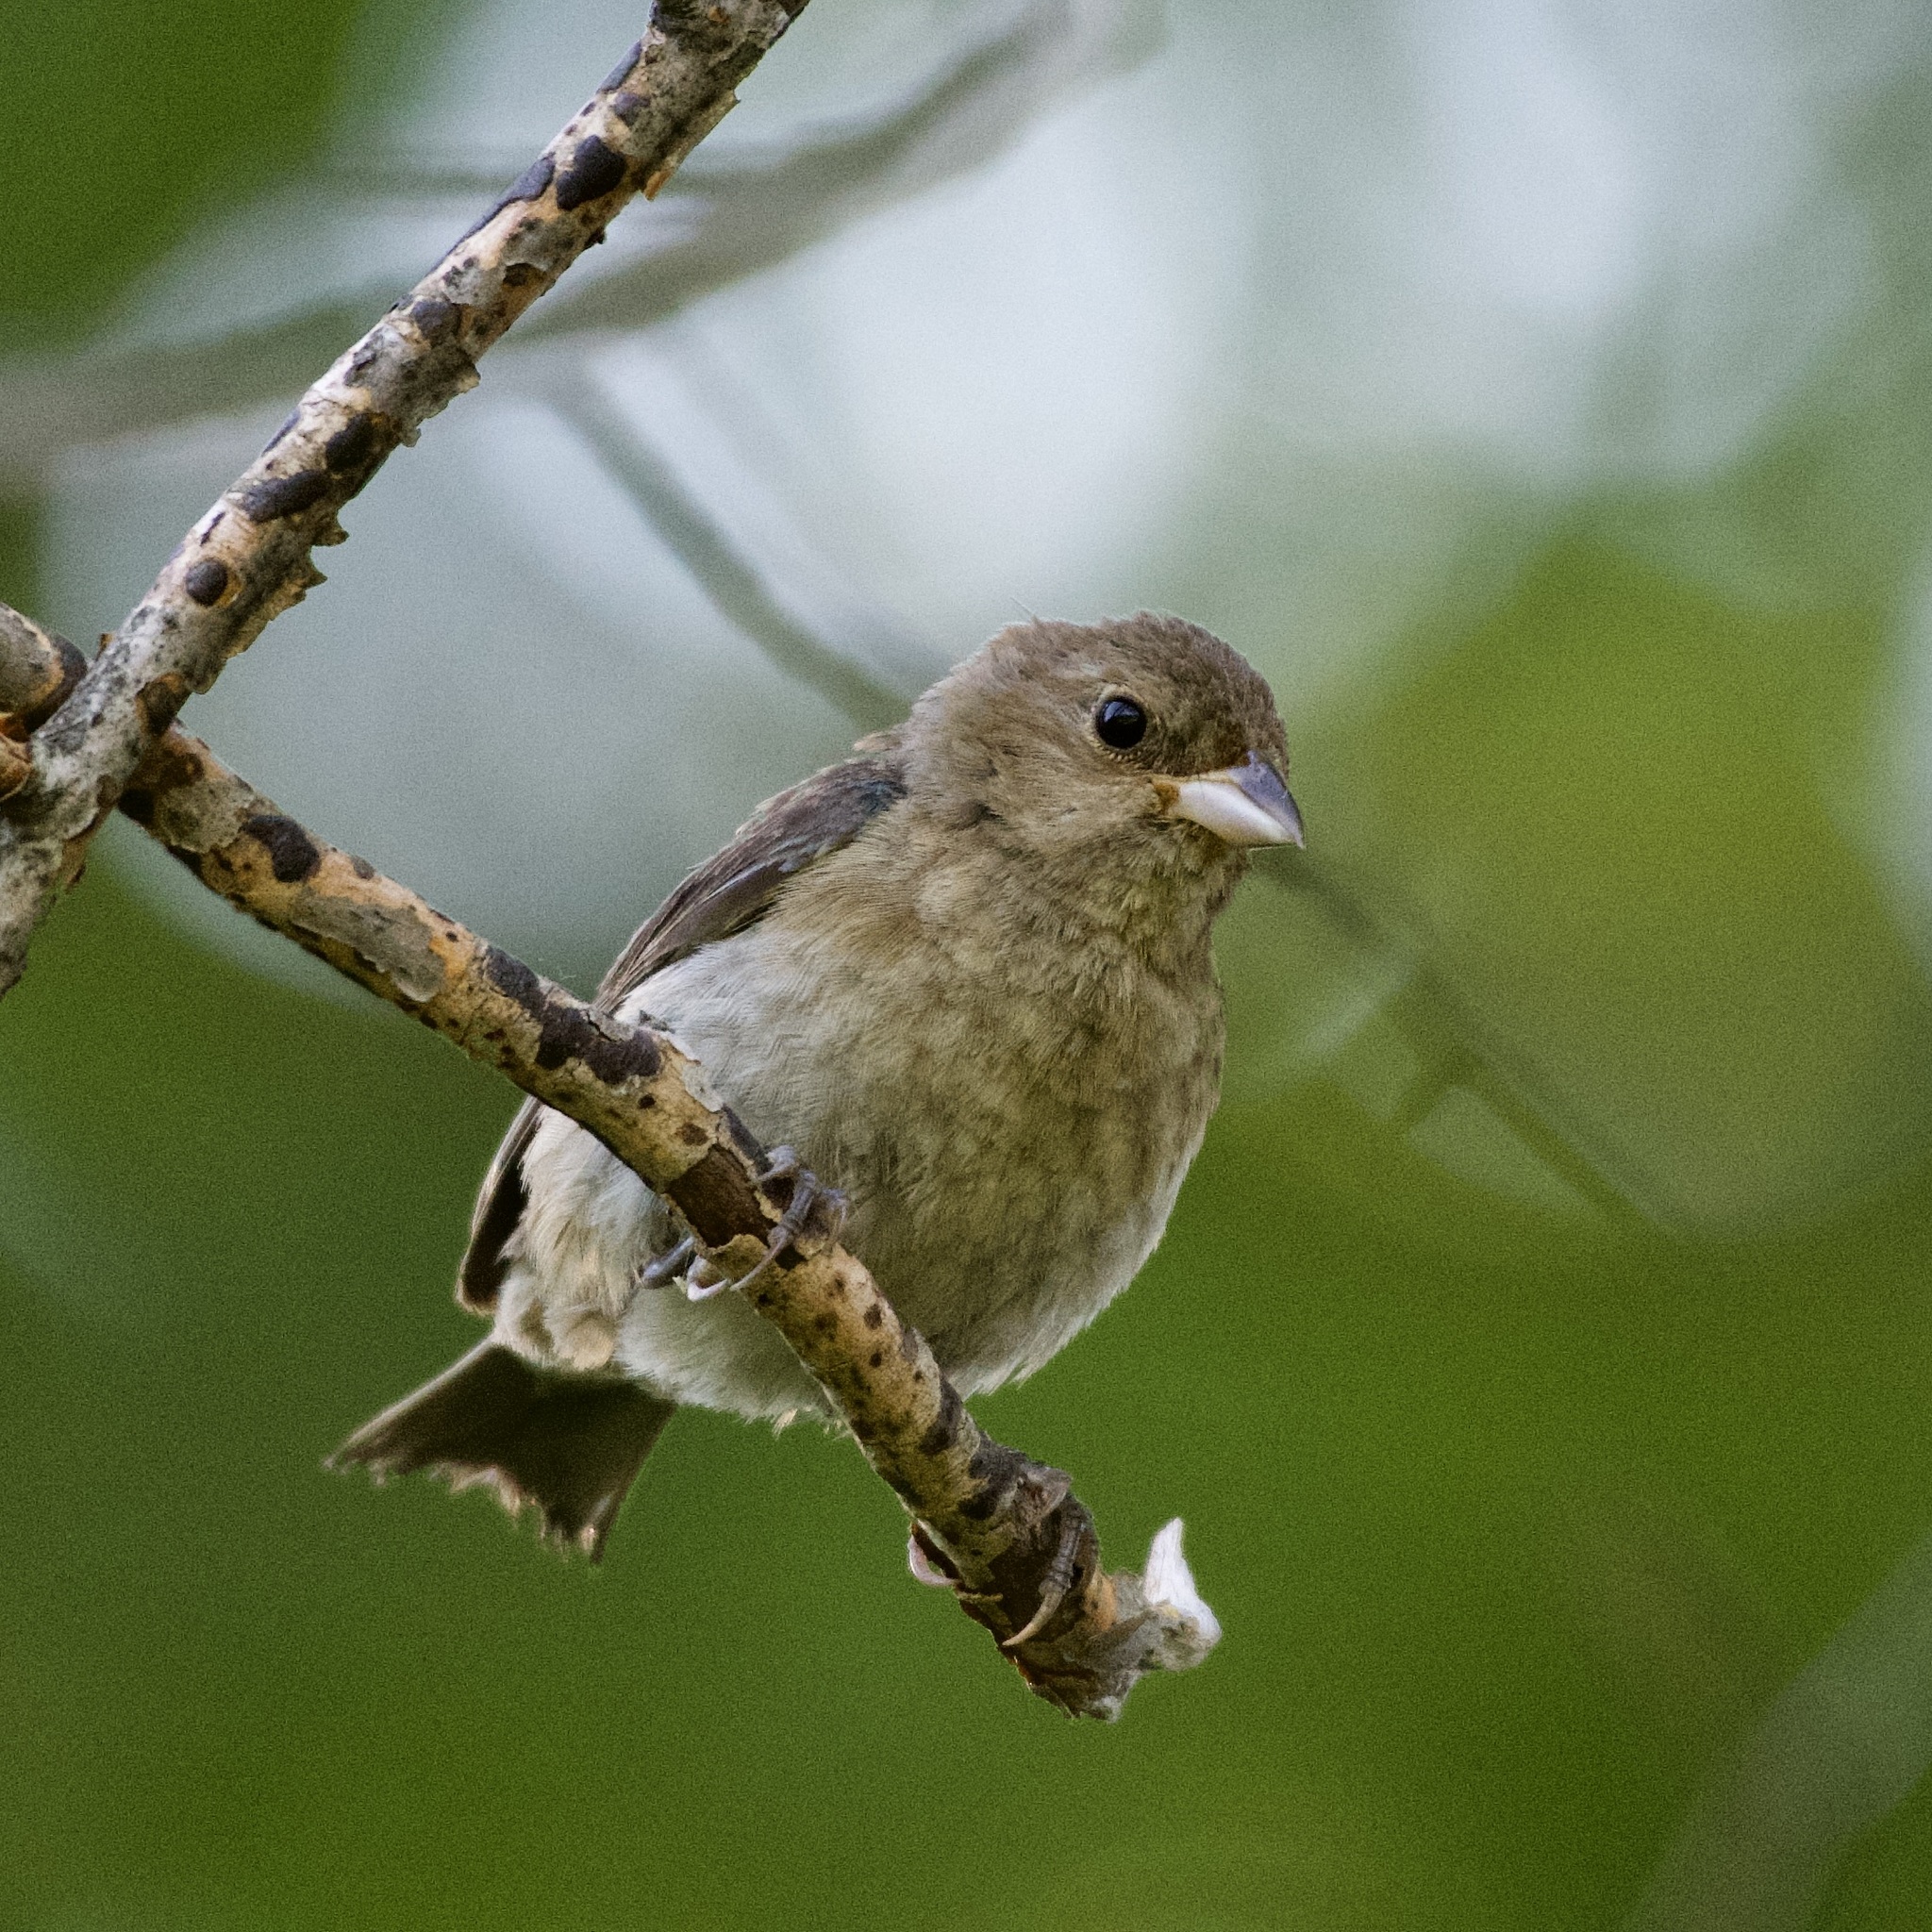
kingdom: Animalia
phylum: Chordata
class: Aves
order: Passeriformes
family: Cardinalidae
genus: Passerina
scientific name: Passerina cyanea
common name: Indigo bunting
